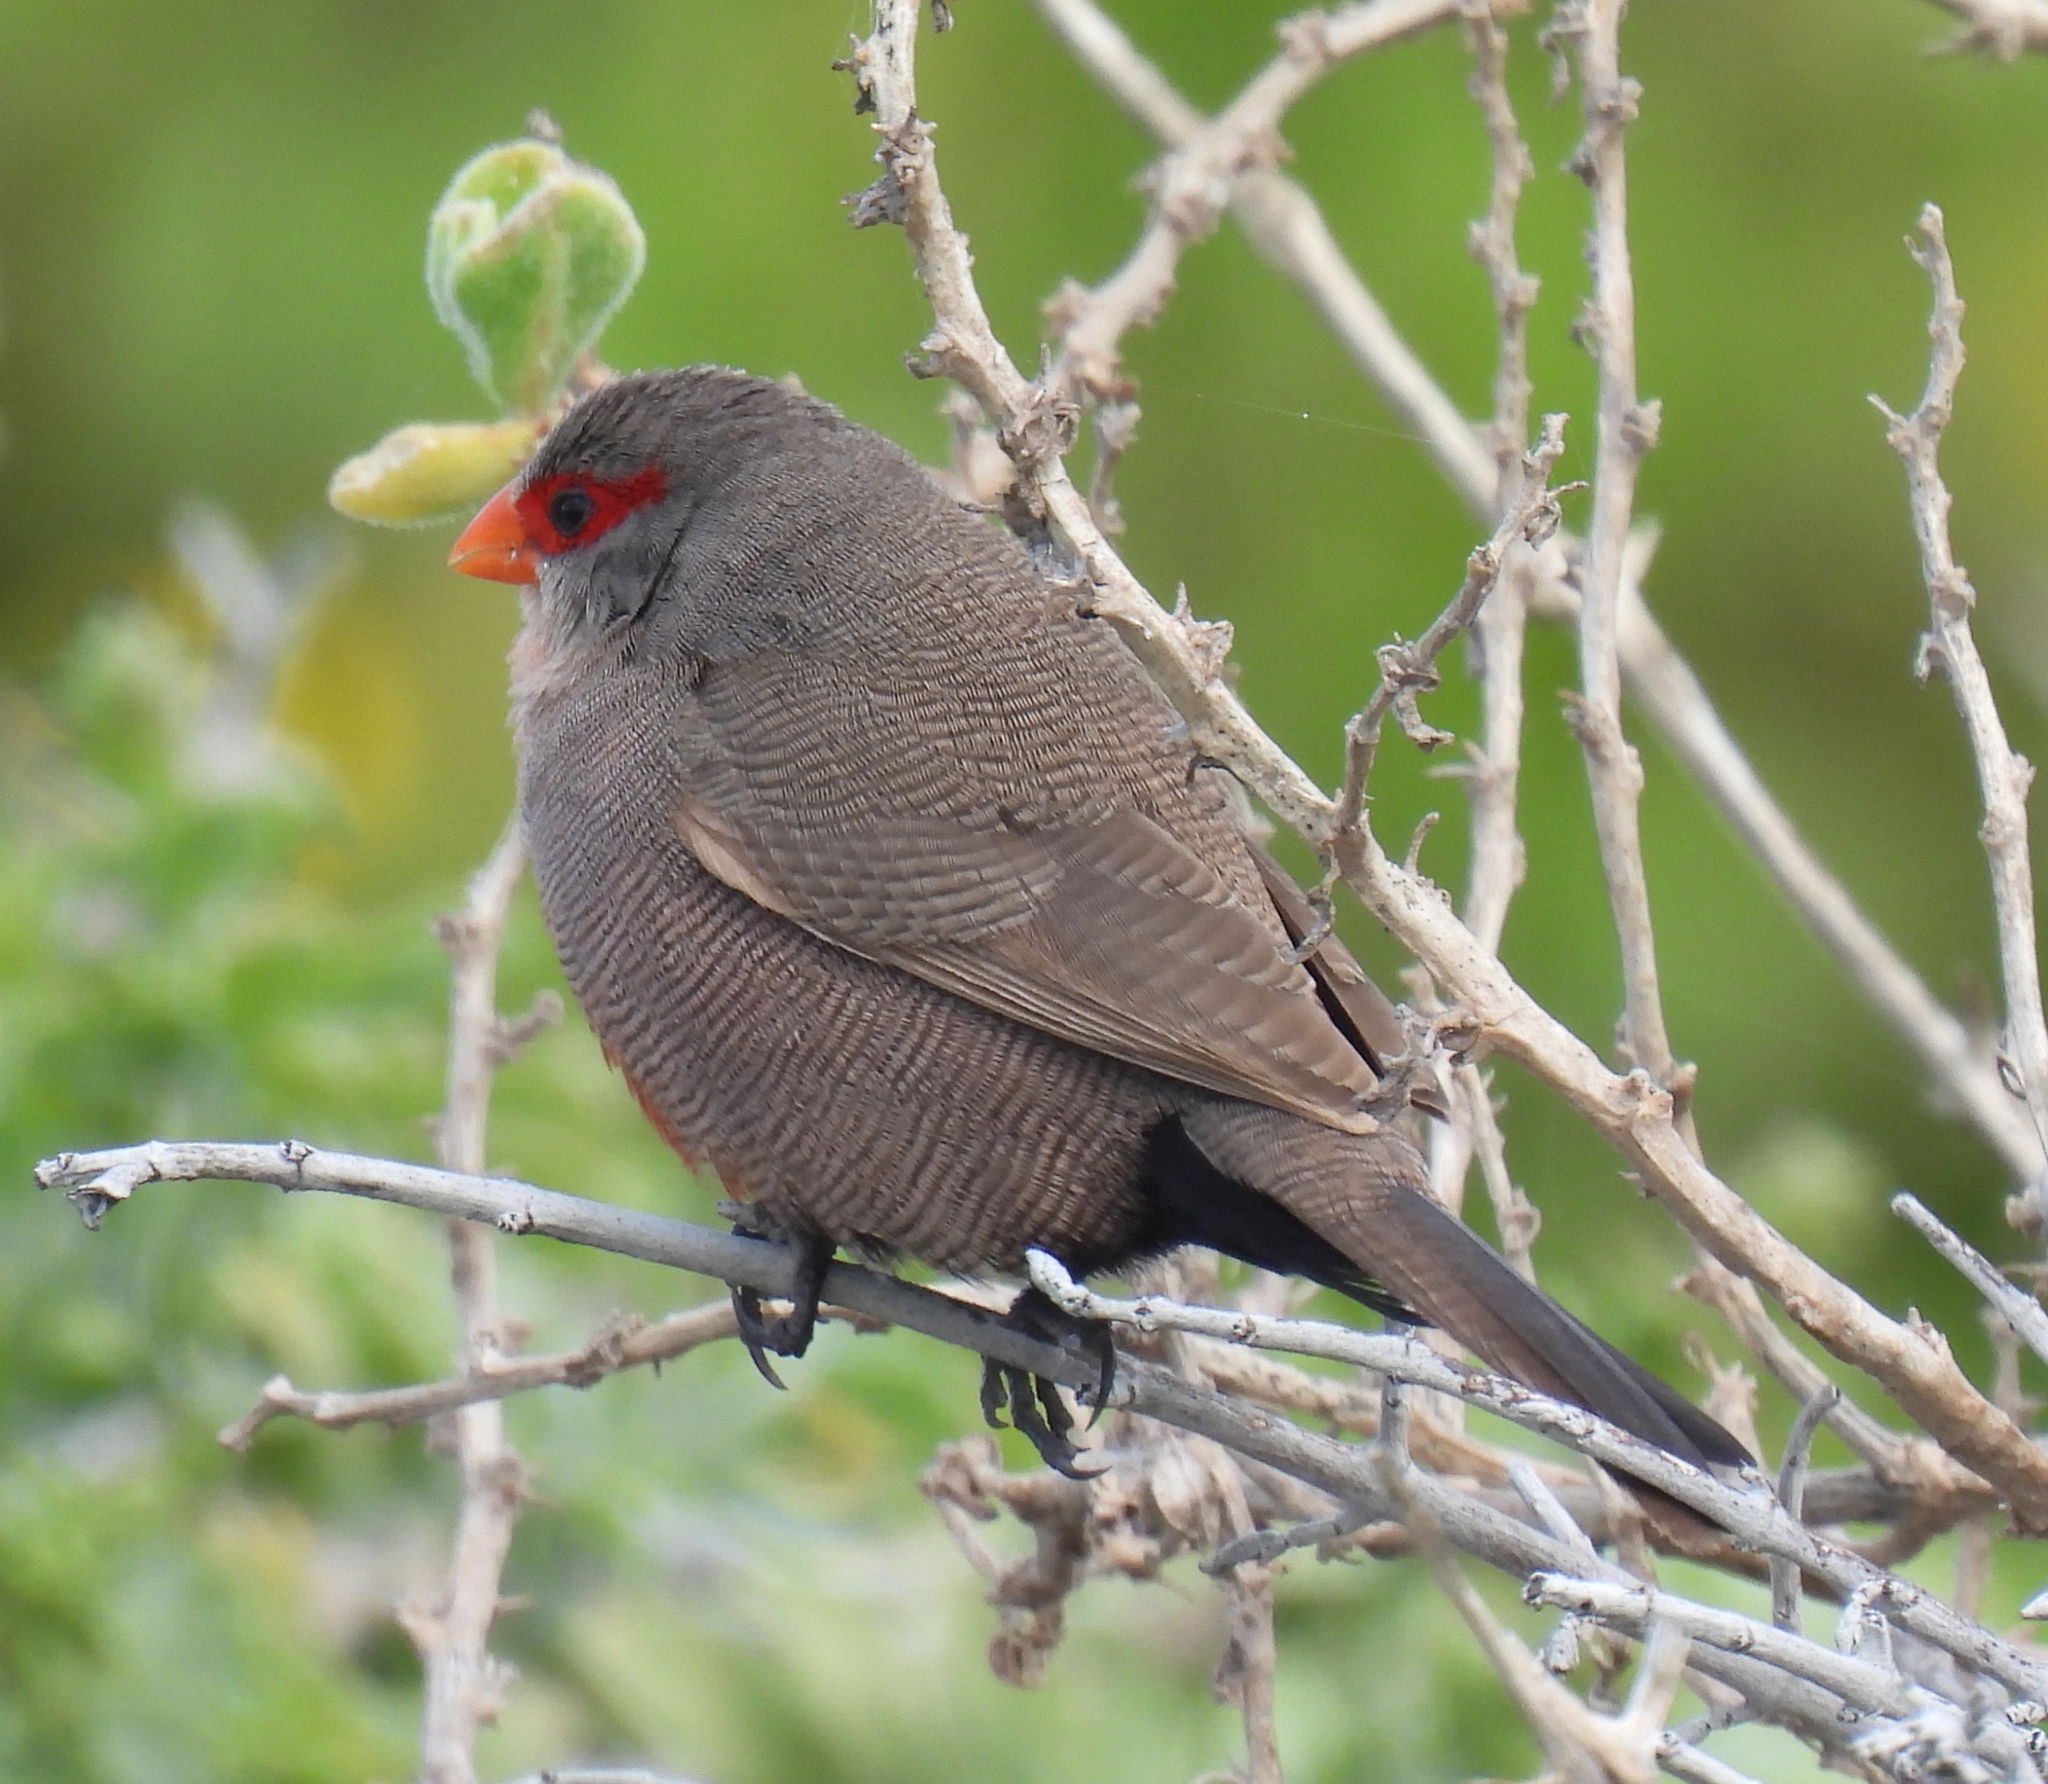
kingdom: Animalia
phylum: Chordata
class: Aves
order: Passeriformes
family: Estrildidae
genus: Estrilda
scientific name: Estrilda astrild
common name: Common waxbill
